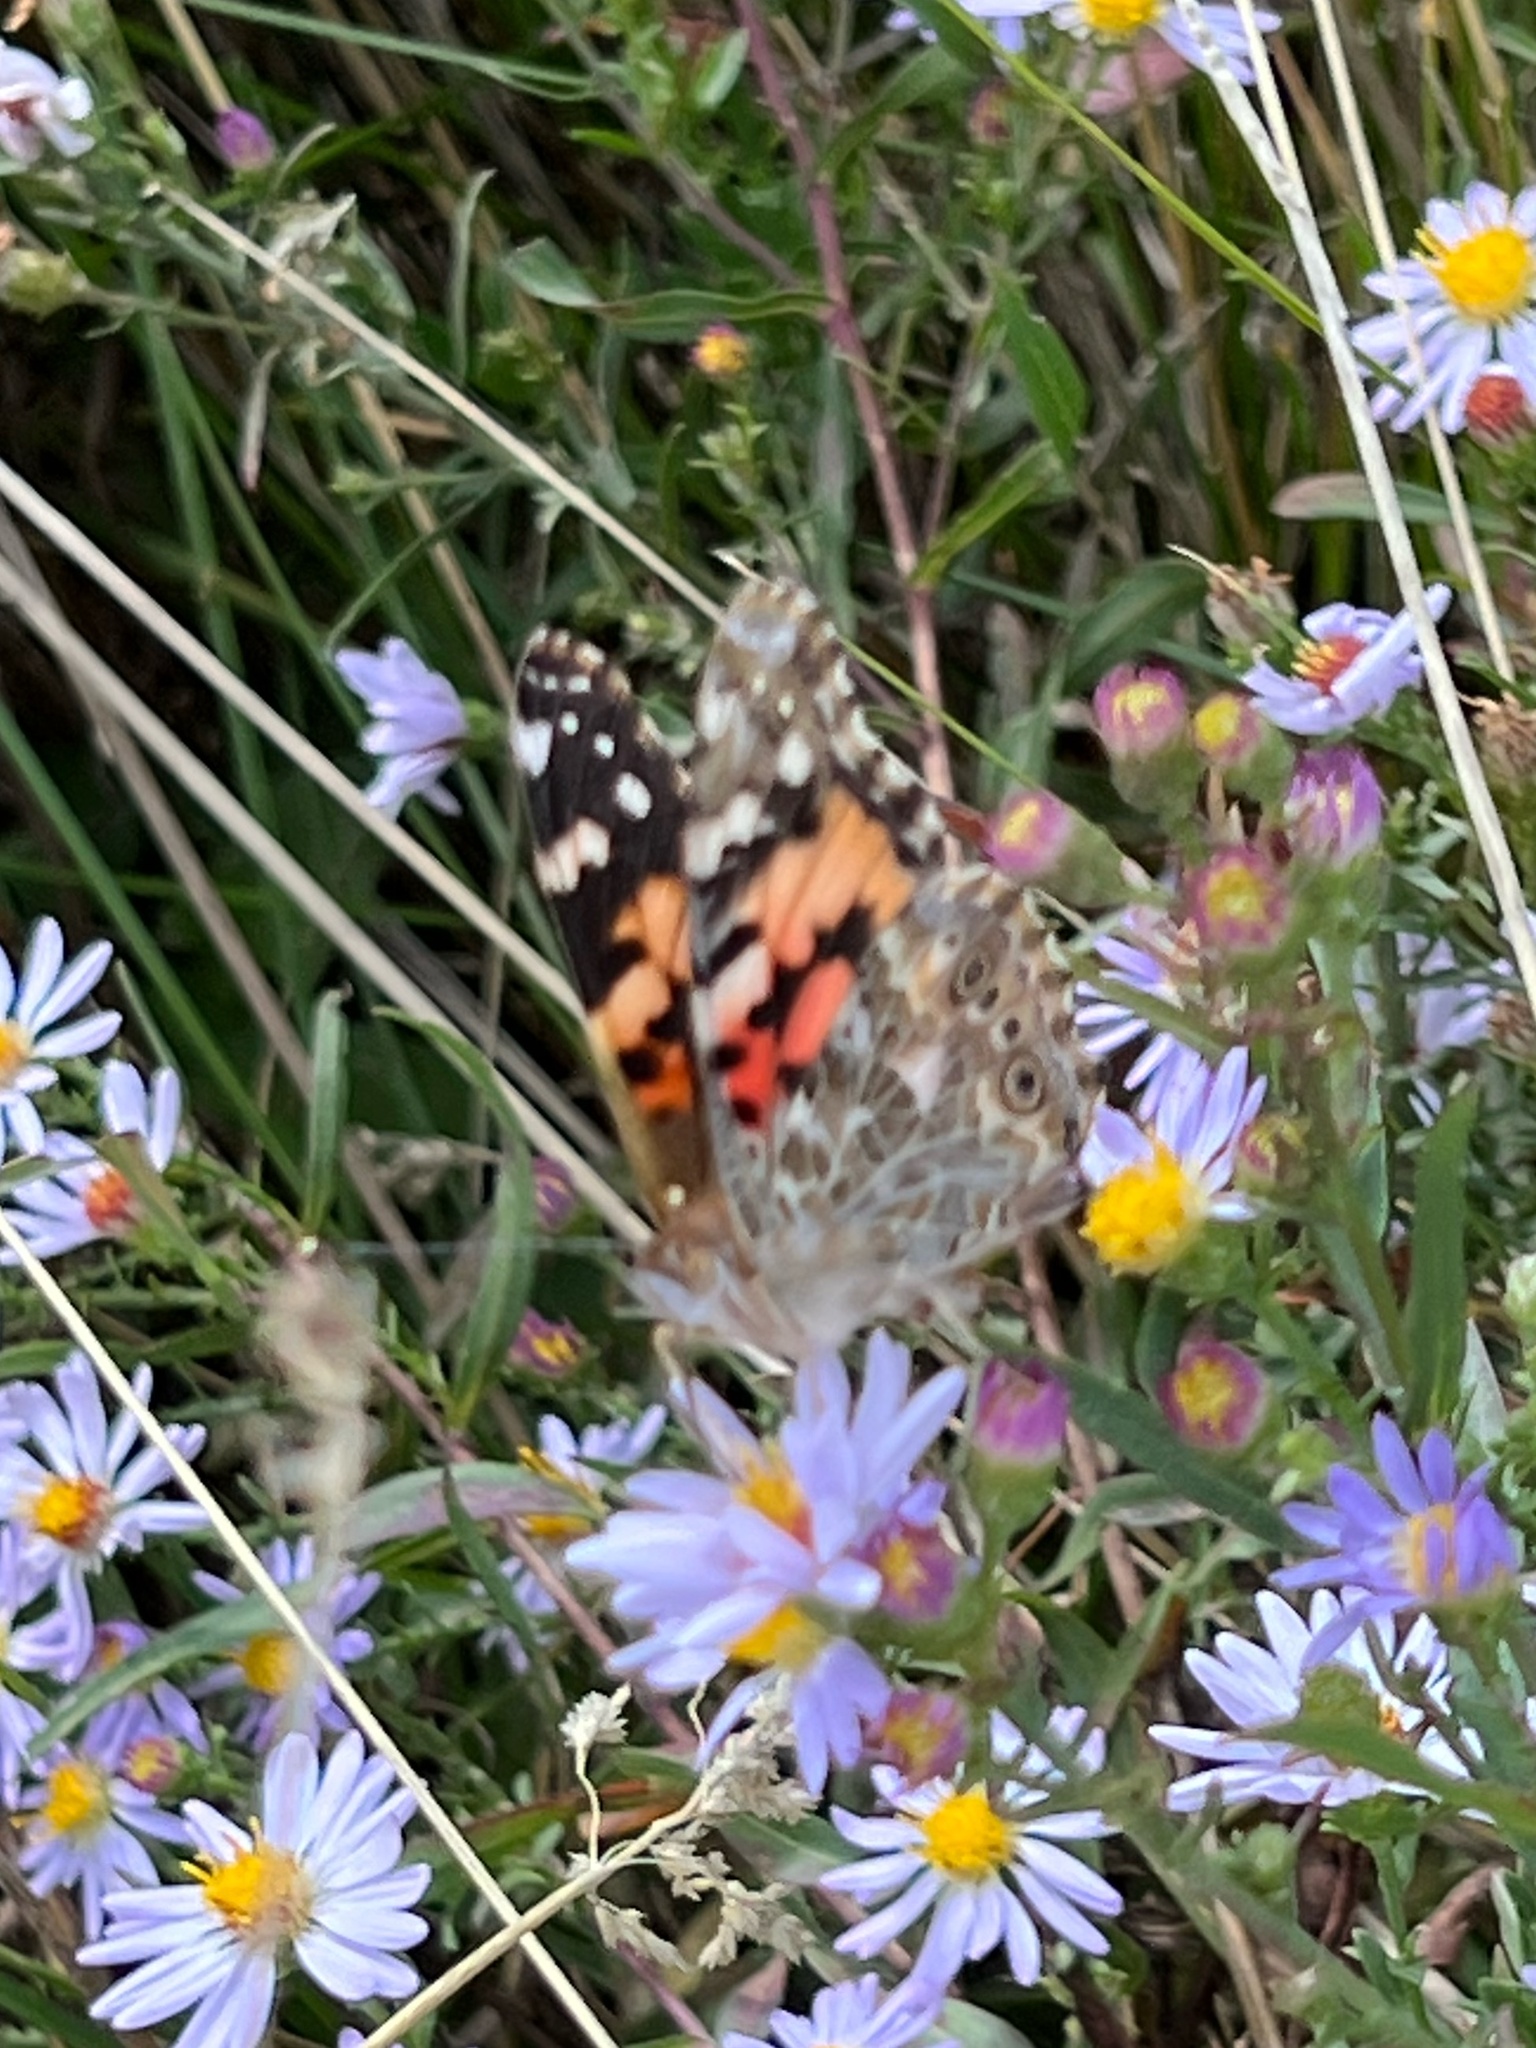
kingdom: Animalia
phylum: Arthropoda
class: Insecta
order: Lepidoptera
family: Nymphalidae
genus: Vanessa
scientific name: Vanessa cardui
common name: Painted lady
